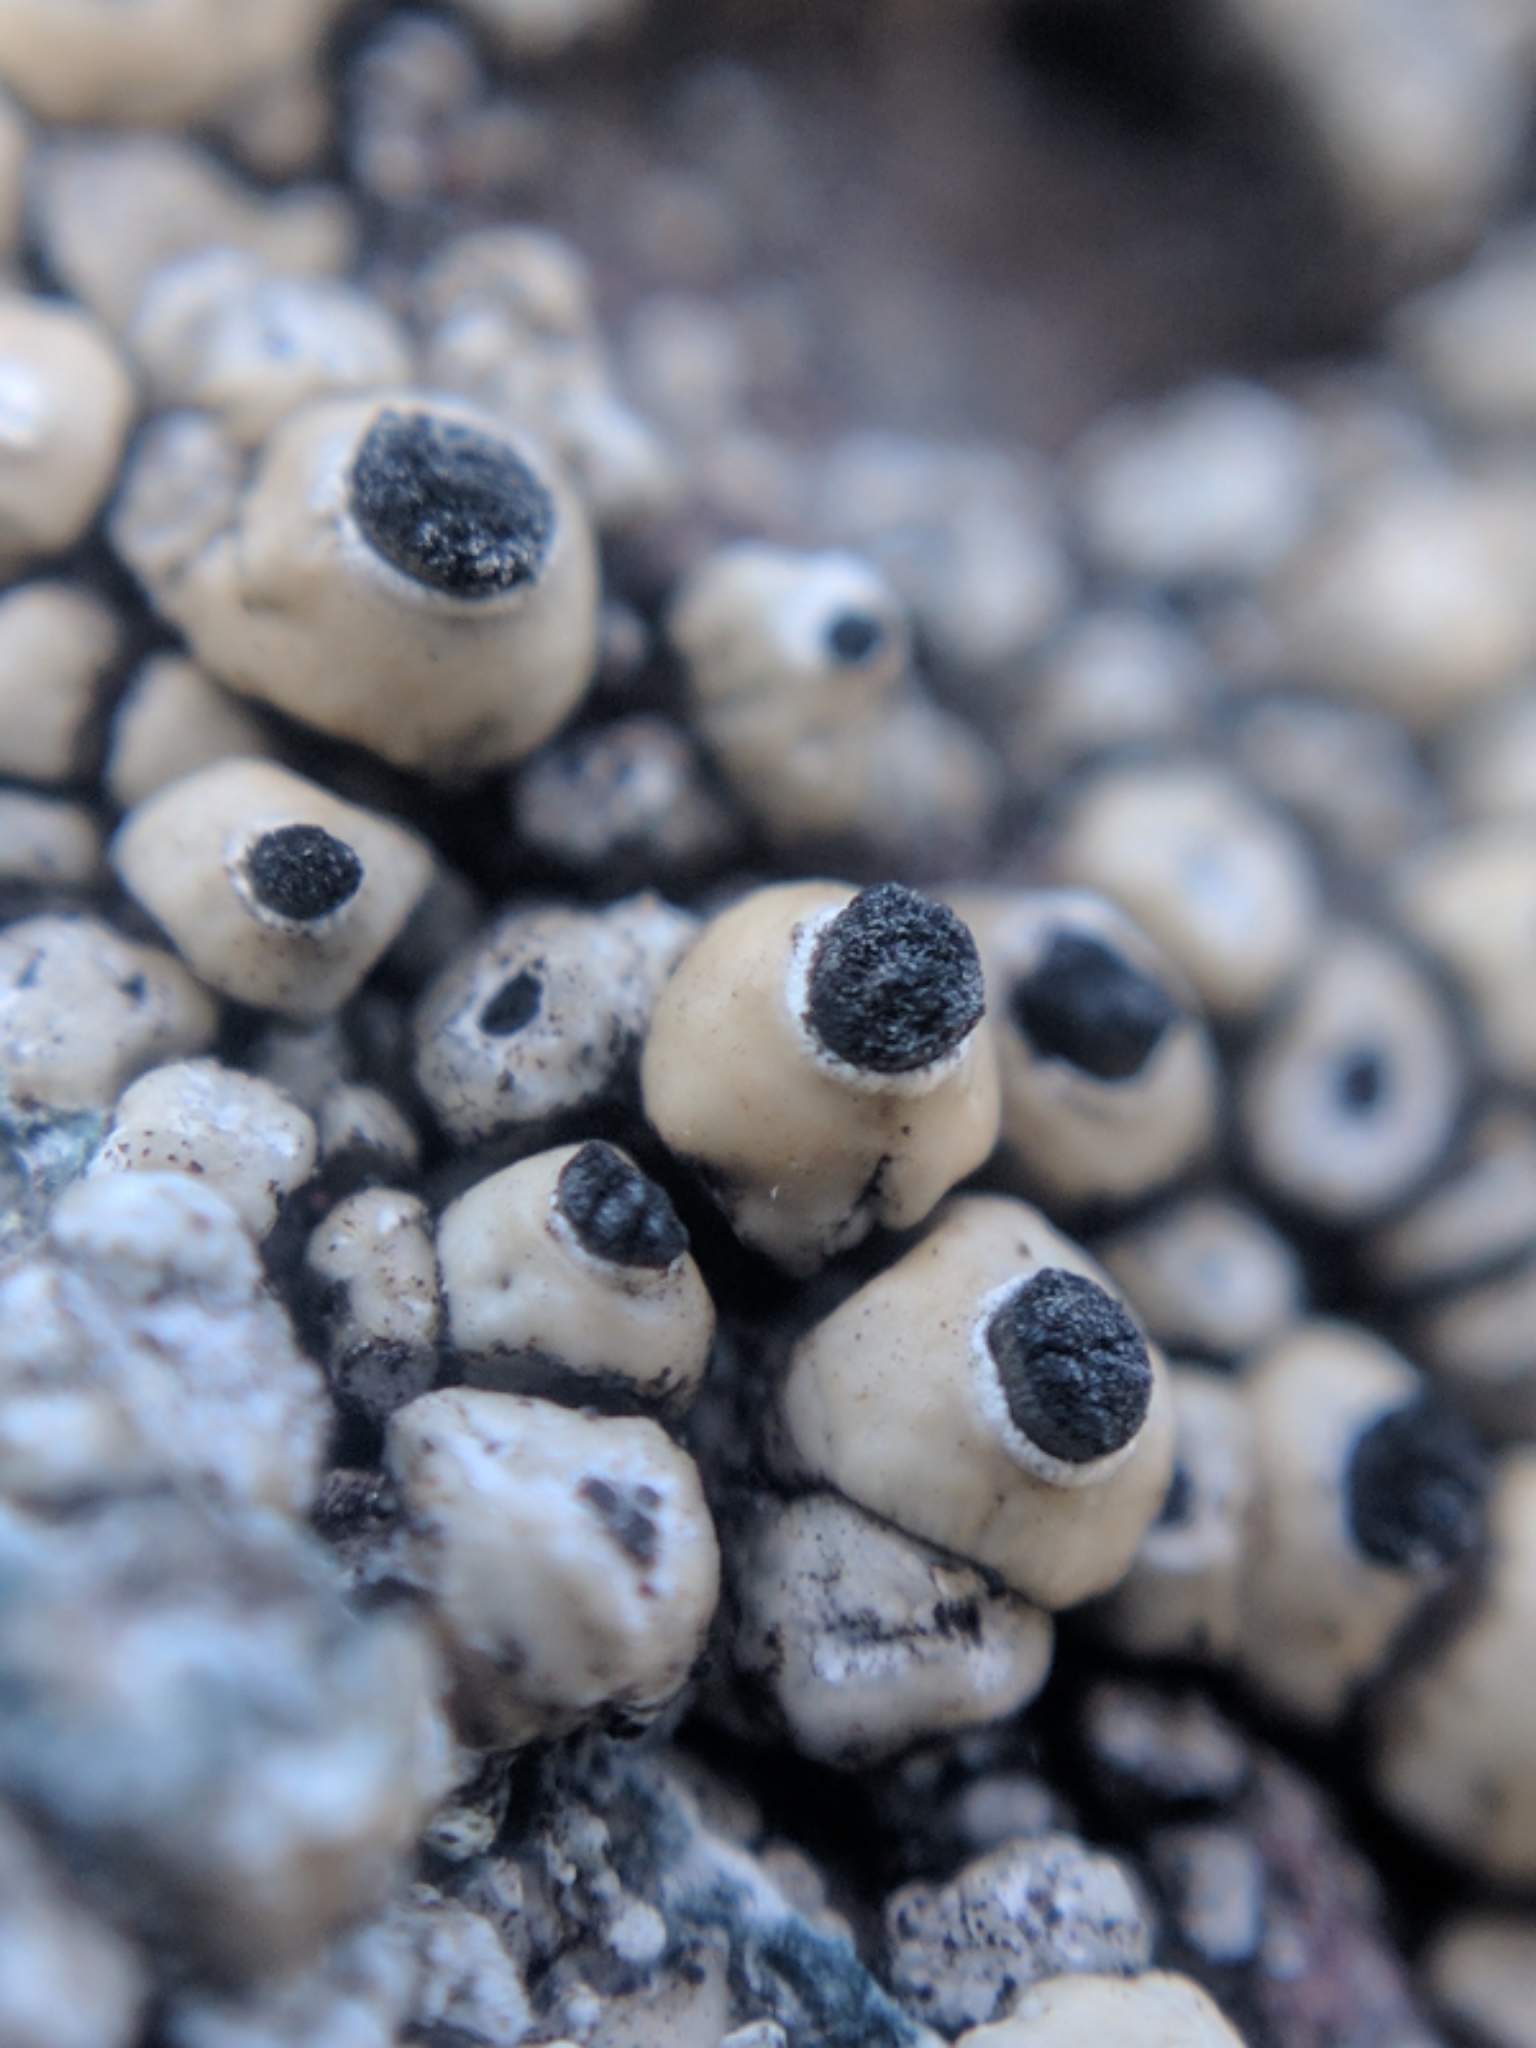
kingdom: Fungi
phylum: Ascomycota
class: Lecanoromycetes
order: Caliciales
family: Caliciaceae
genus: Thelomma
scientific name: Thelomma mammosum
